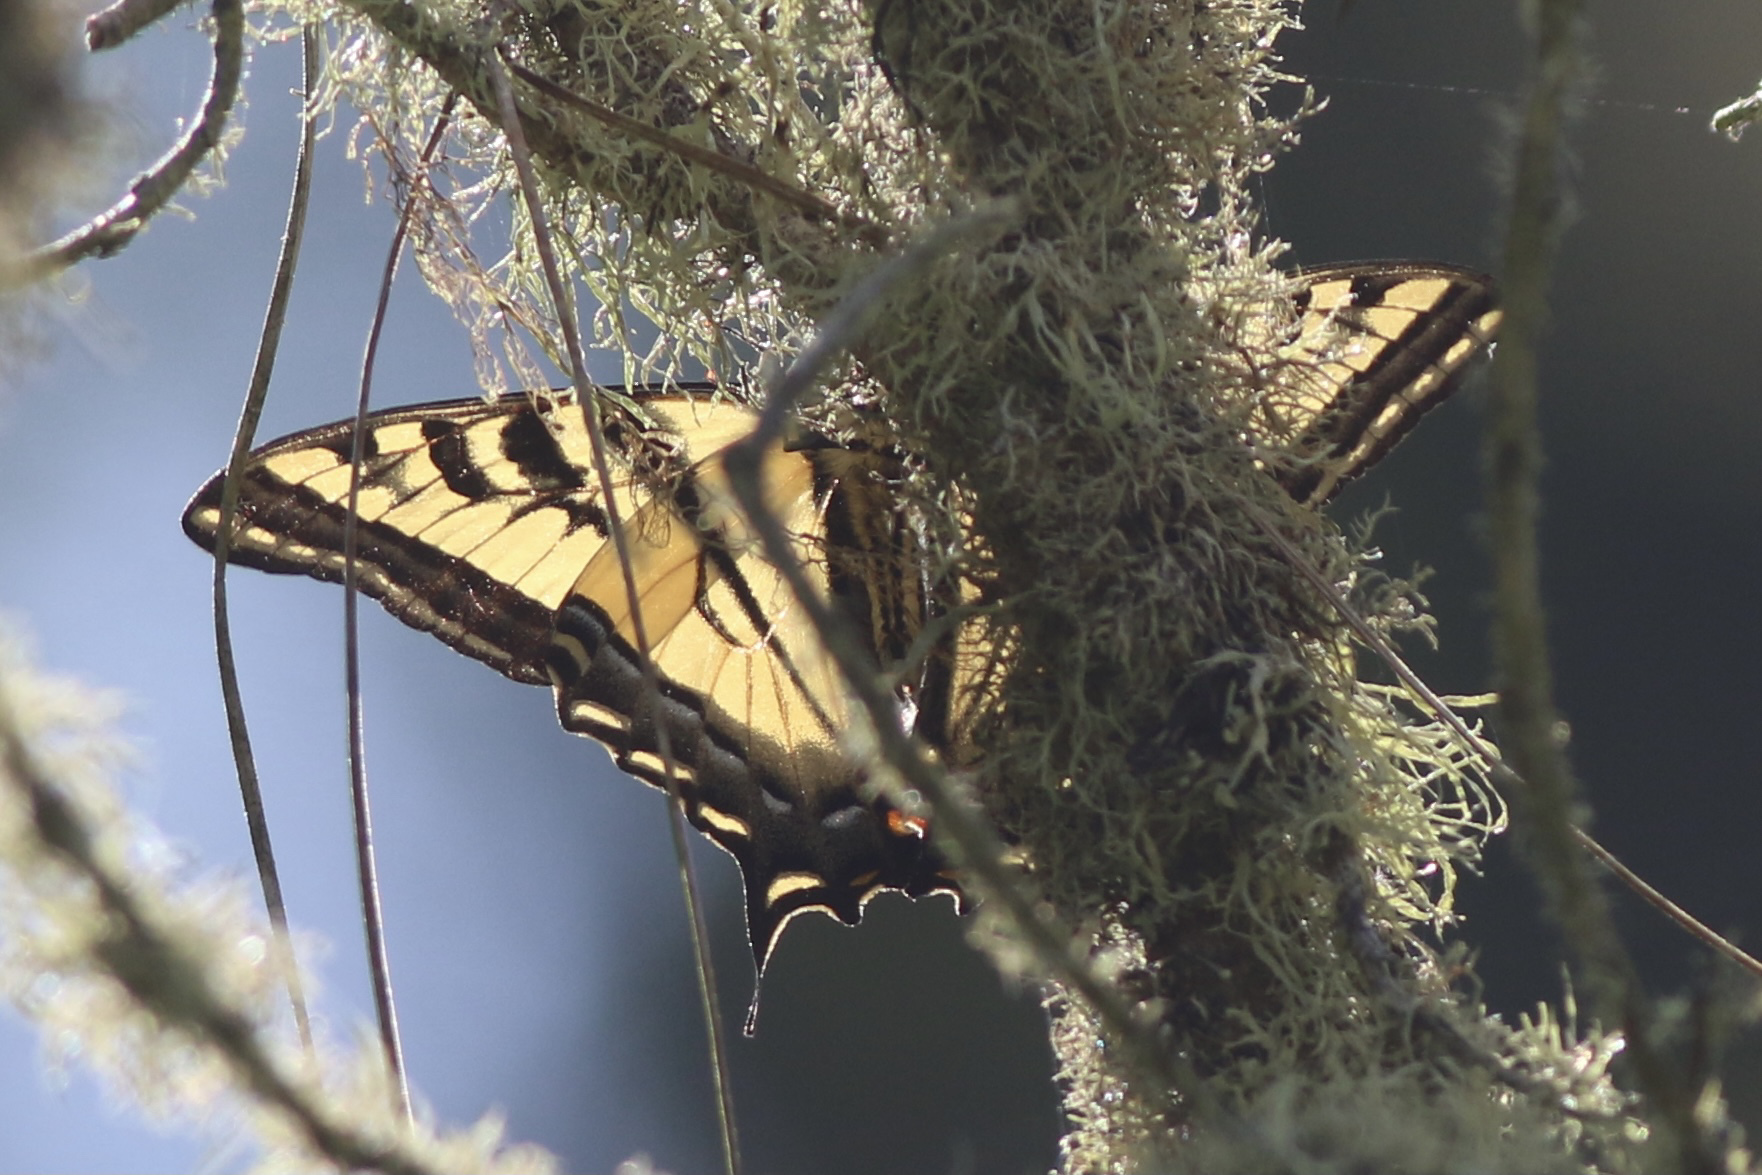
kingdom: Animalia
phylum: Arthropoda
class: Insecta
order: Lepidoptera
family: Papilionidae
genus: Papilio
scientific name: Papilio rutulus
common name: Western tiger swallowtail
